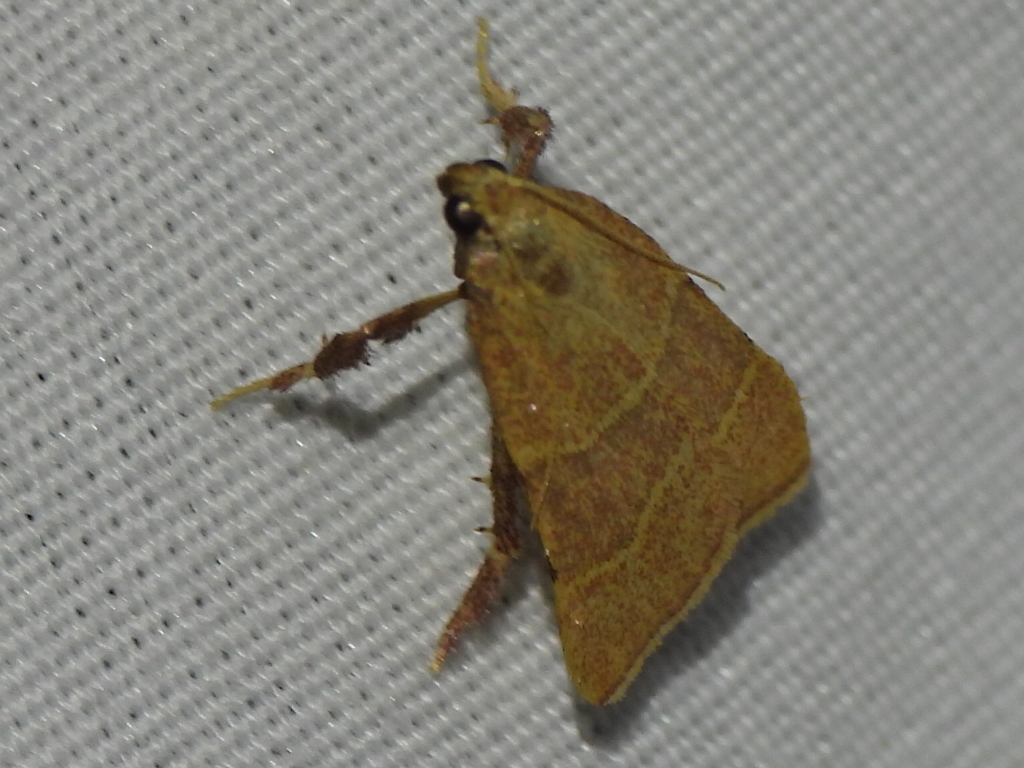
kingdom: Animalia
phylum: Arthropoda
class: Insecta
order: Lepidoptera
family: Pyralidae
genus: Parachma
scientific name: Parachma ochracealis
